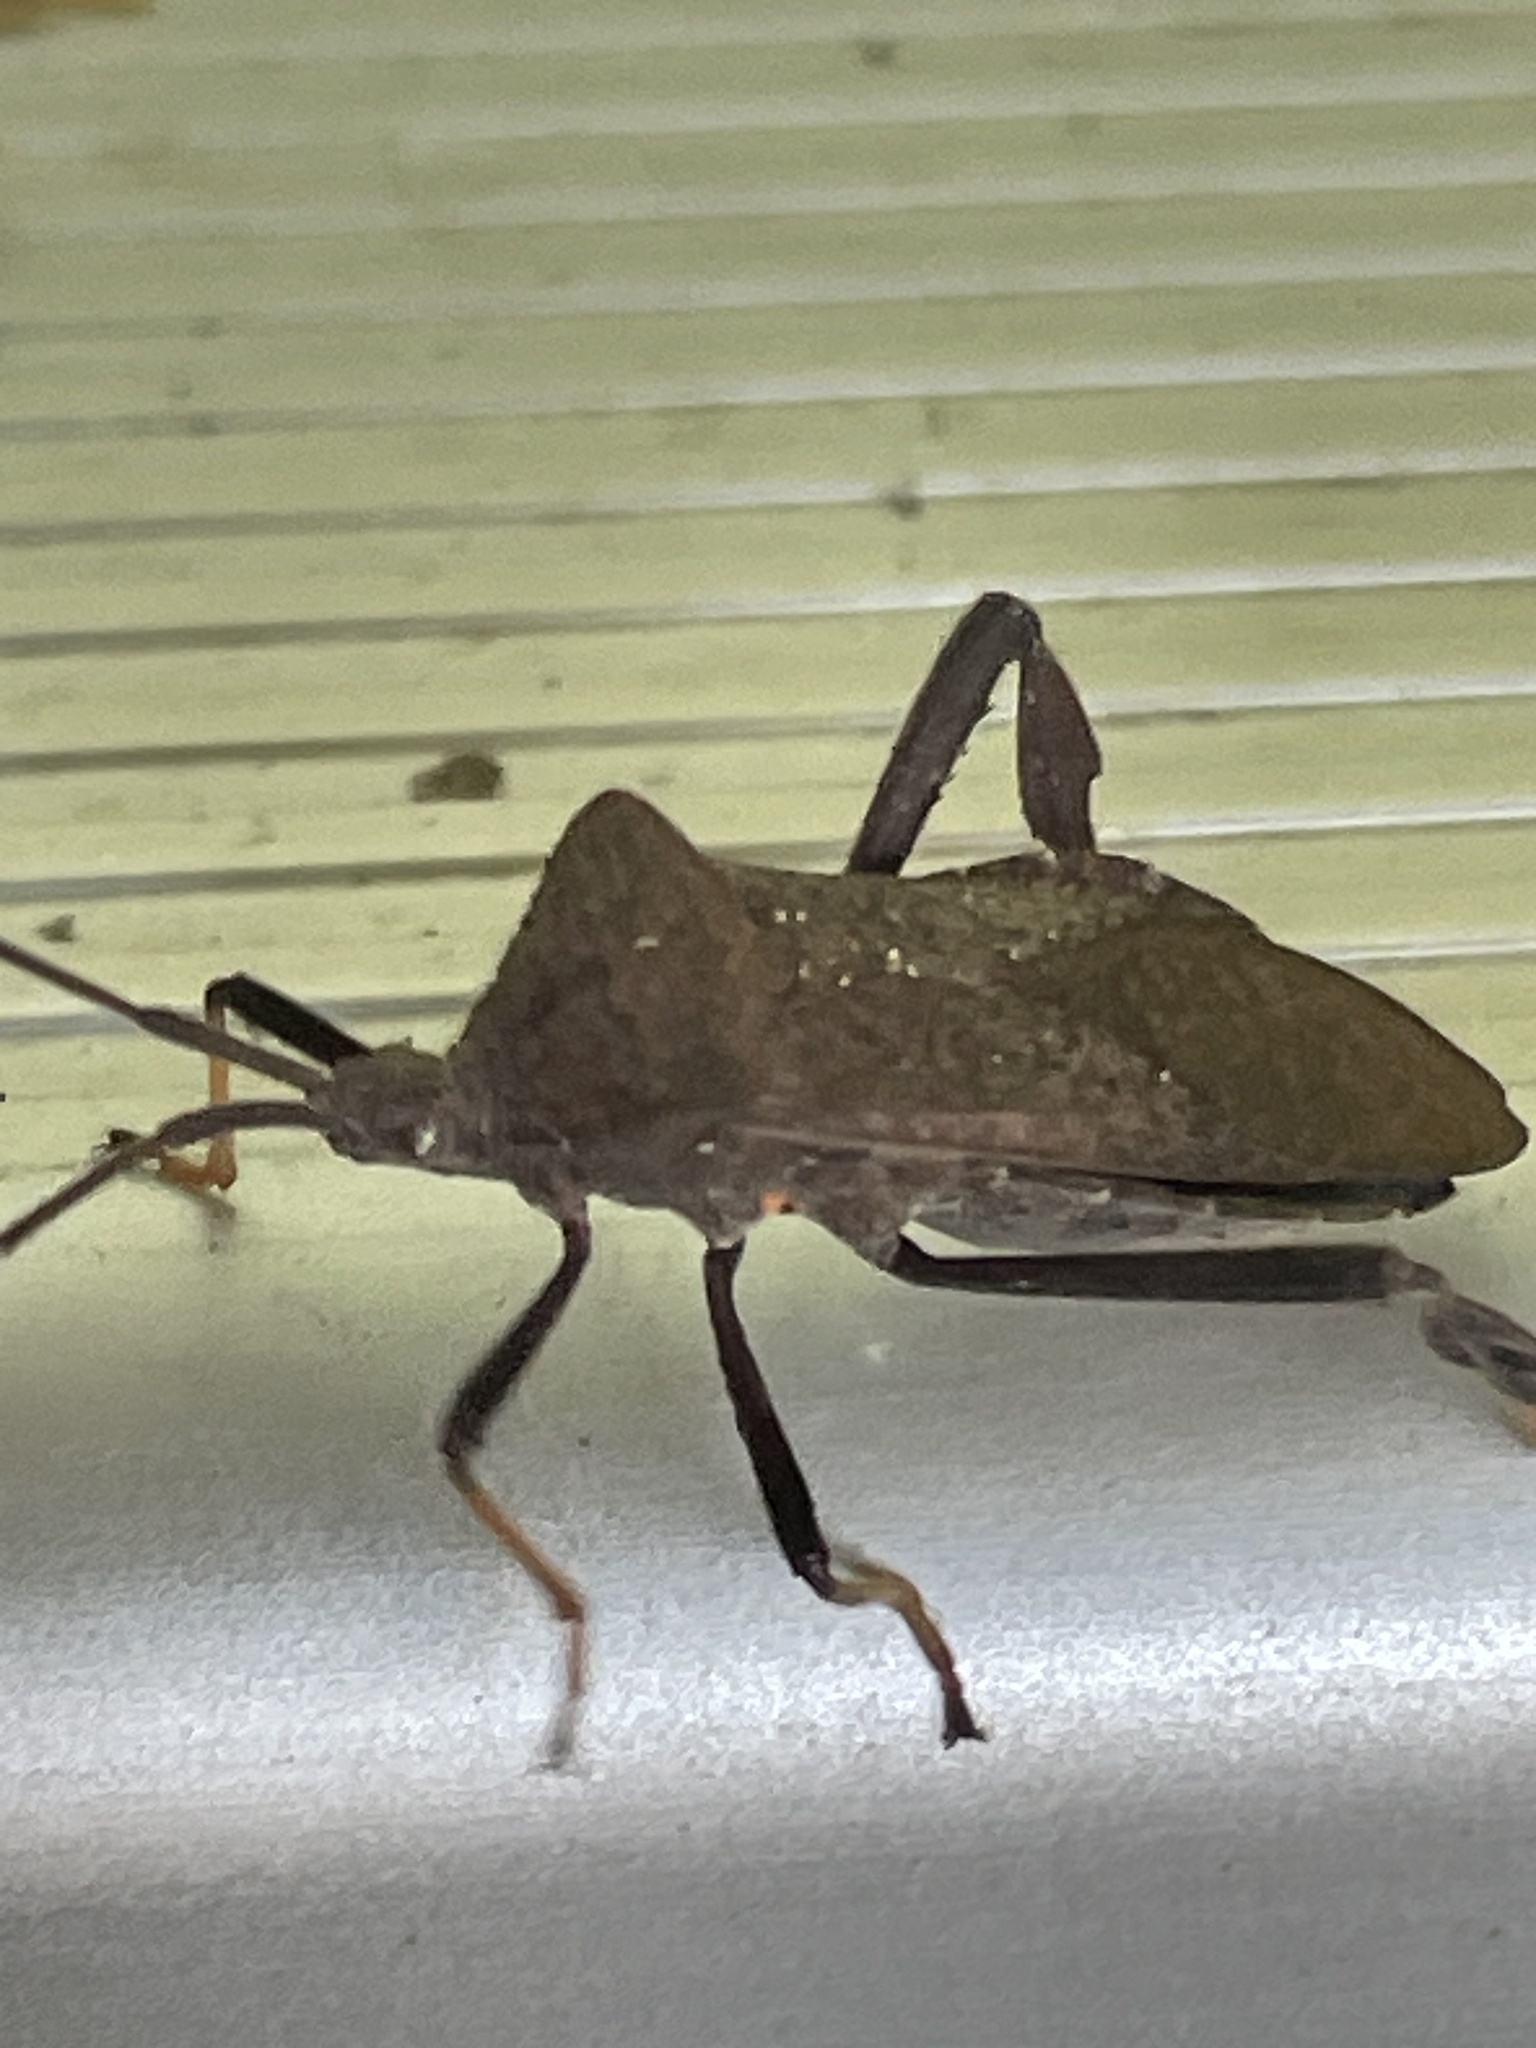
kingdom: Animalia
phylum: Arthropoda
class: Insecta
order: Hemiptera
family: Coreidae
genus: Acanthocephala
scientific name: Acanthocephala terminalis
